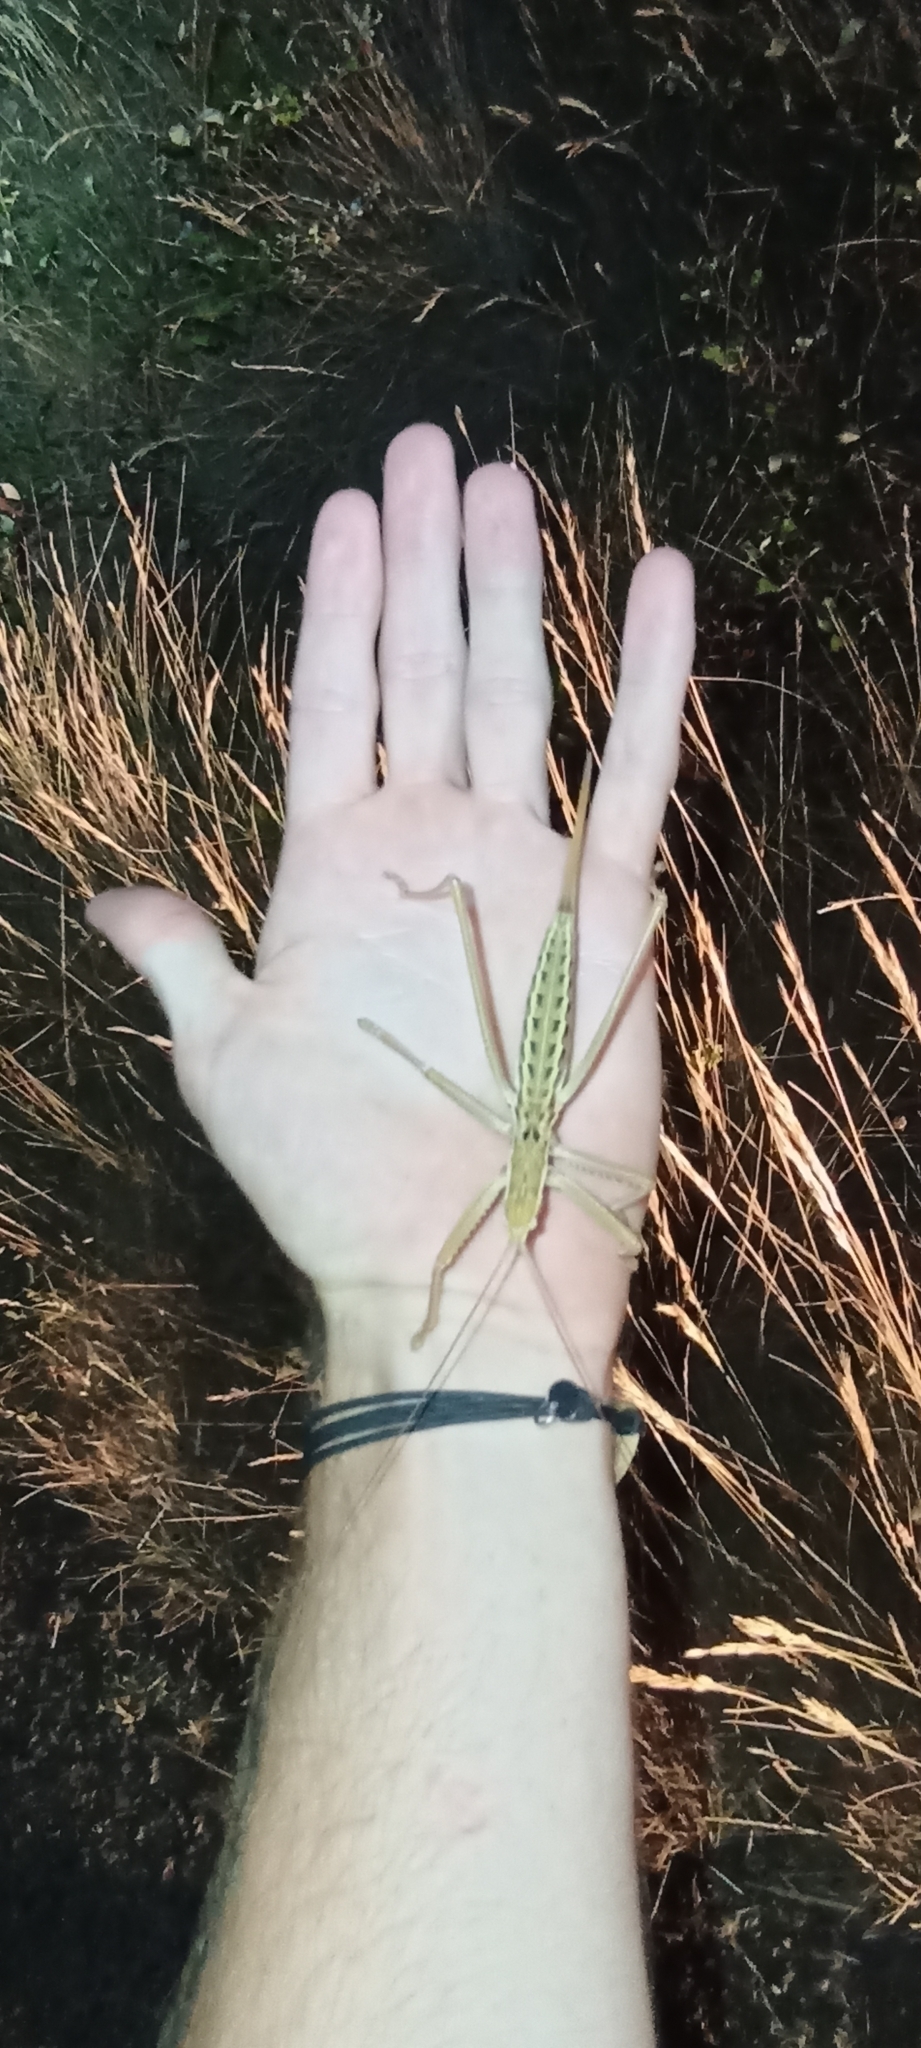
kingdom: Animalia
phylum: Arthropoda
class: Insecta
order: Orthoptera
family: Tettigoniidae
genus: Saga
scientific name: Saga pedo
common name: Common predatory bush-cricket
